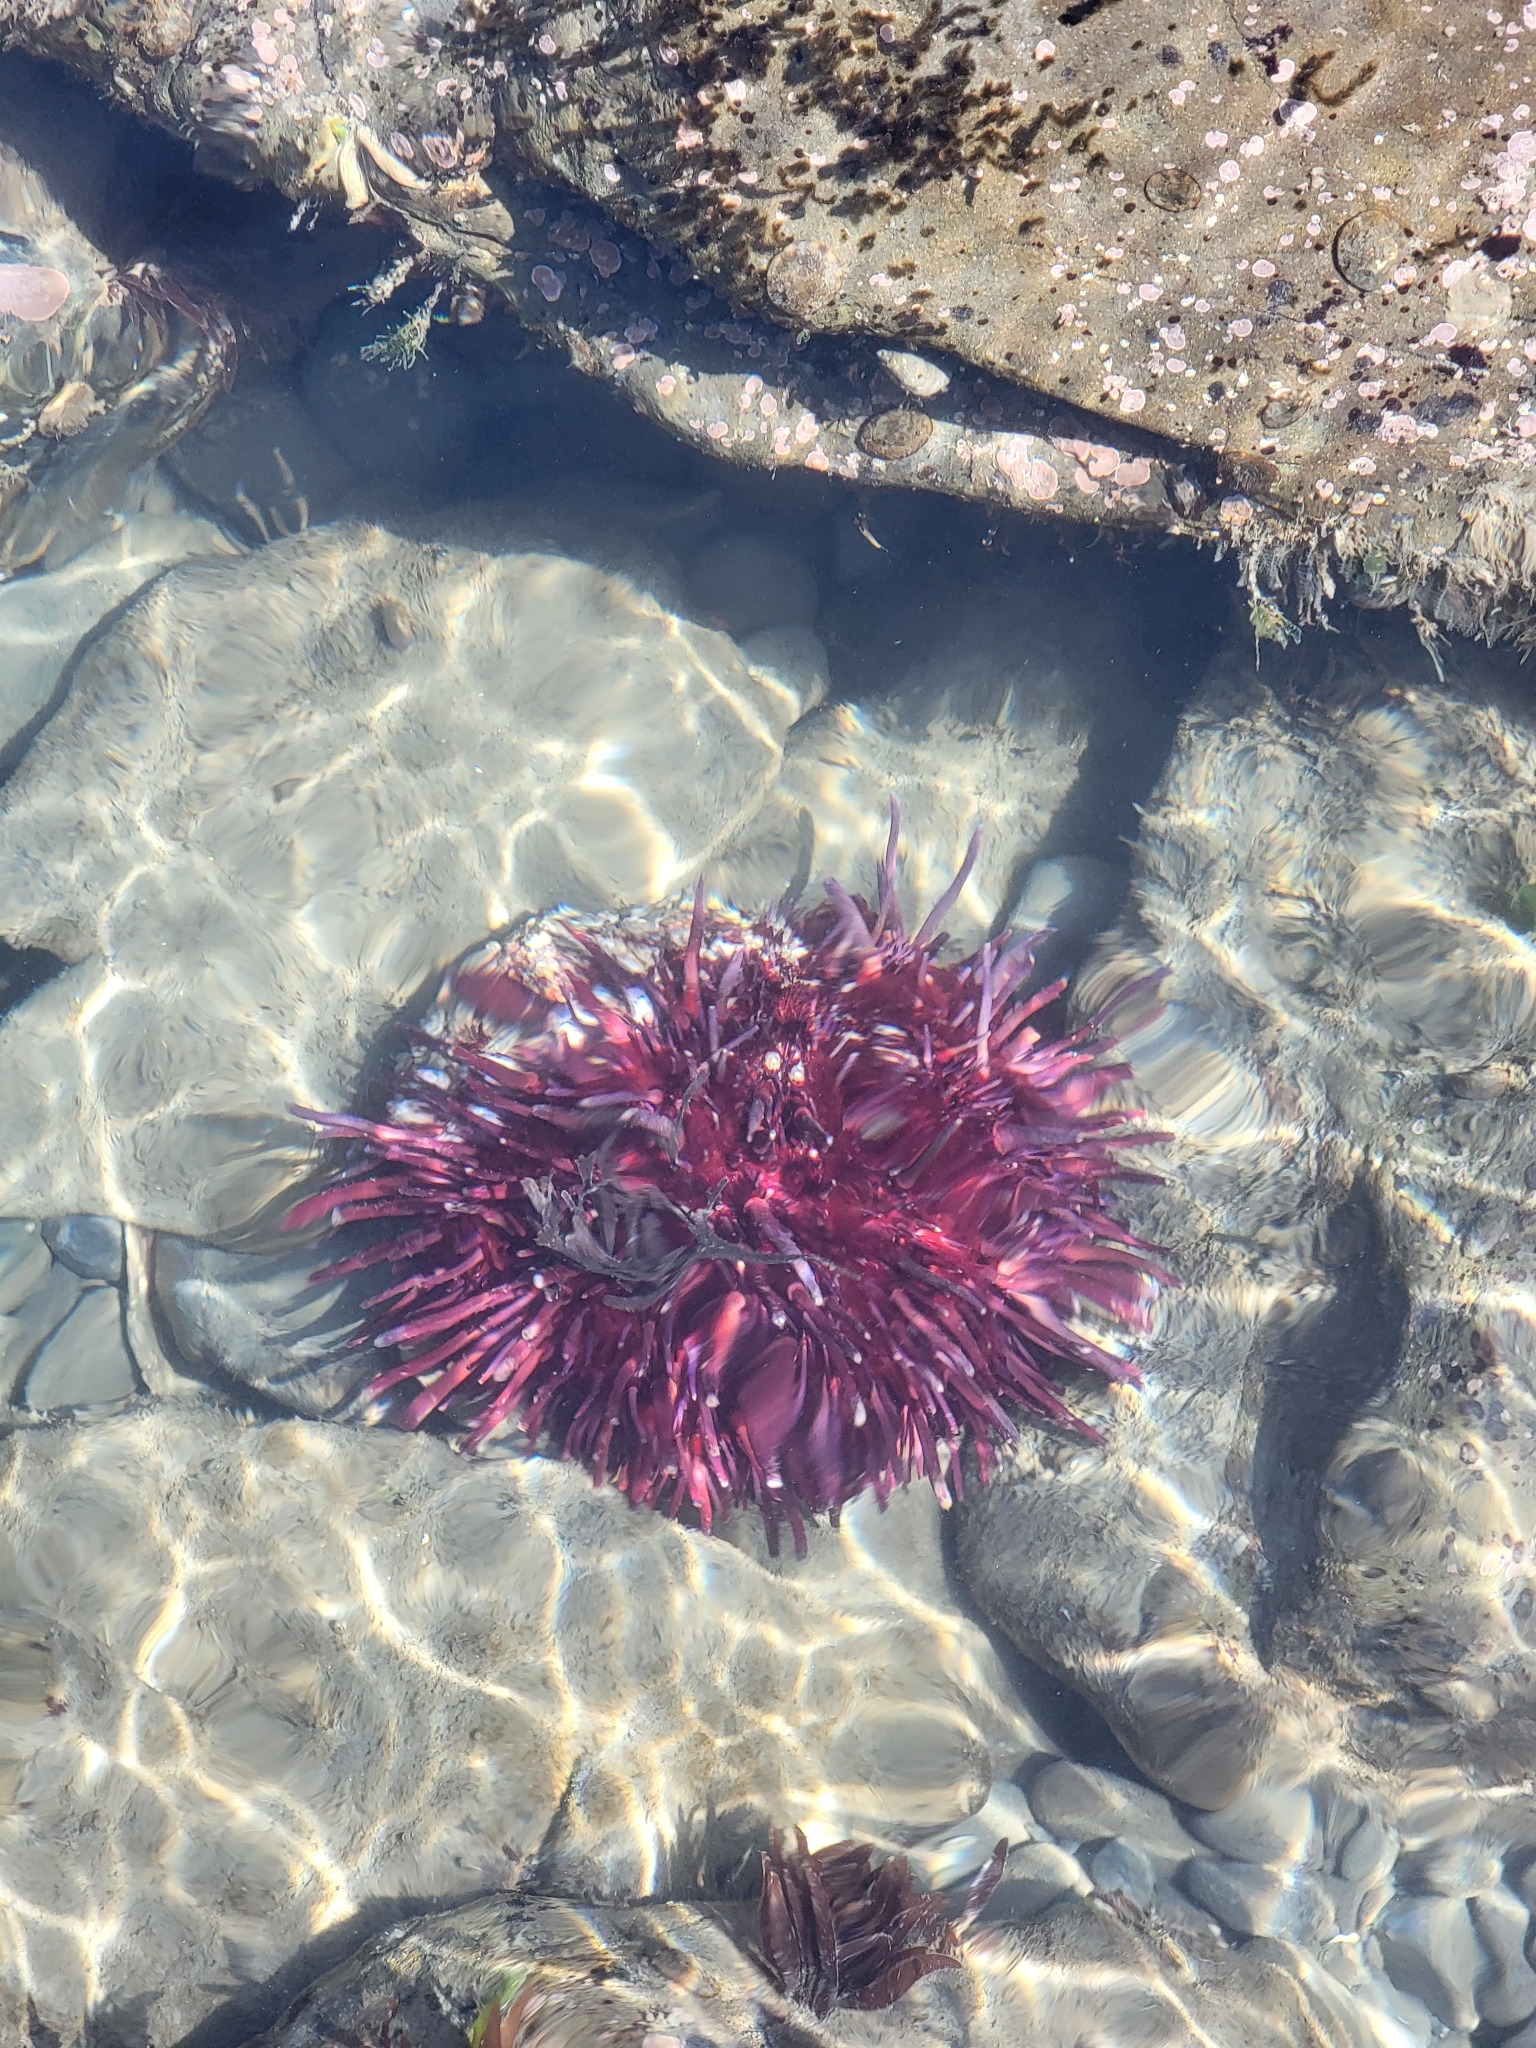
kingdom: Animalia
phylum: Echinodermata
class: Echinoidea
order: Camarodonta
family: Strongylocentrotidae
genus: Mesocentrotus
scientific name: Mesocentrotus franciscanus
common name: Red sea urchin
